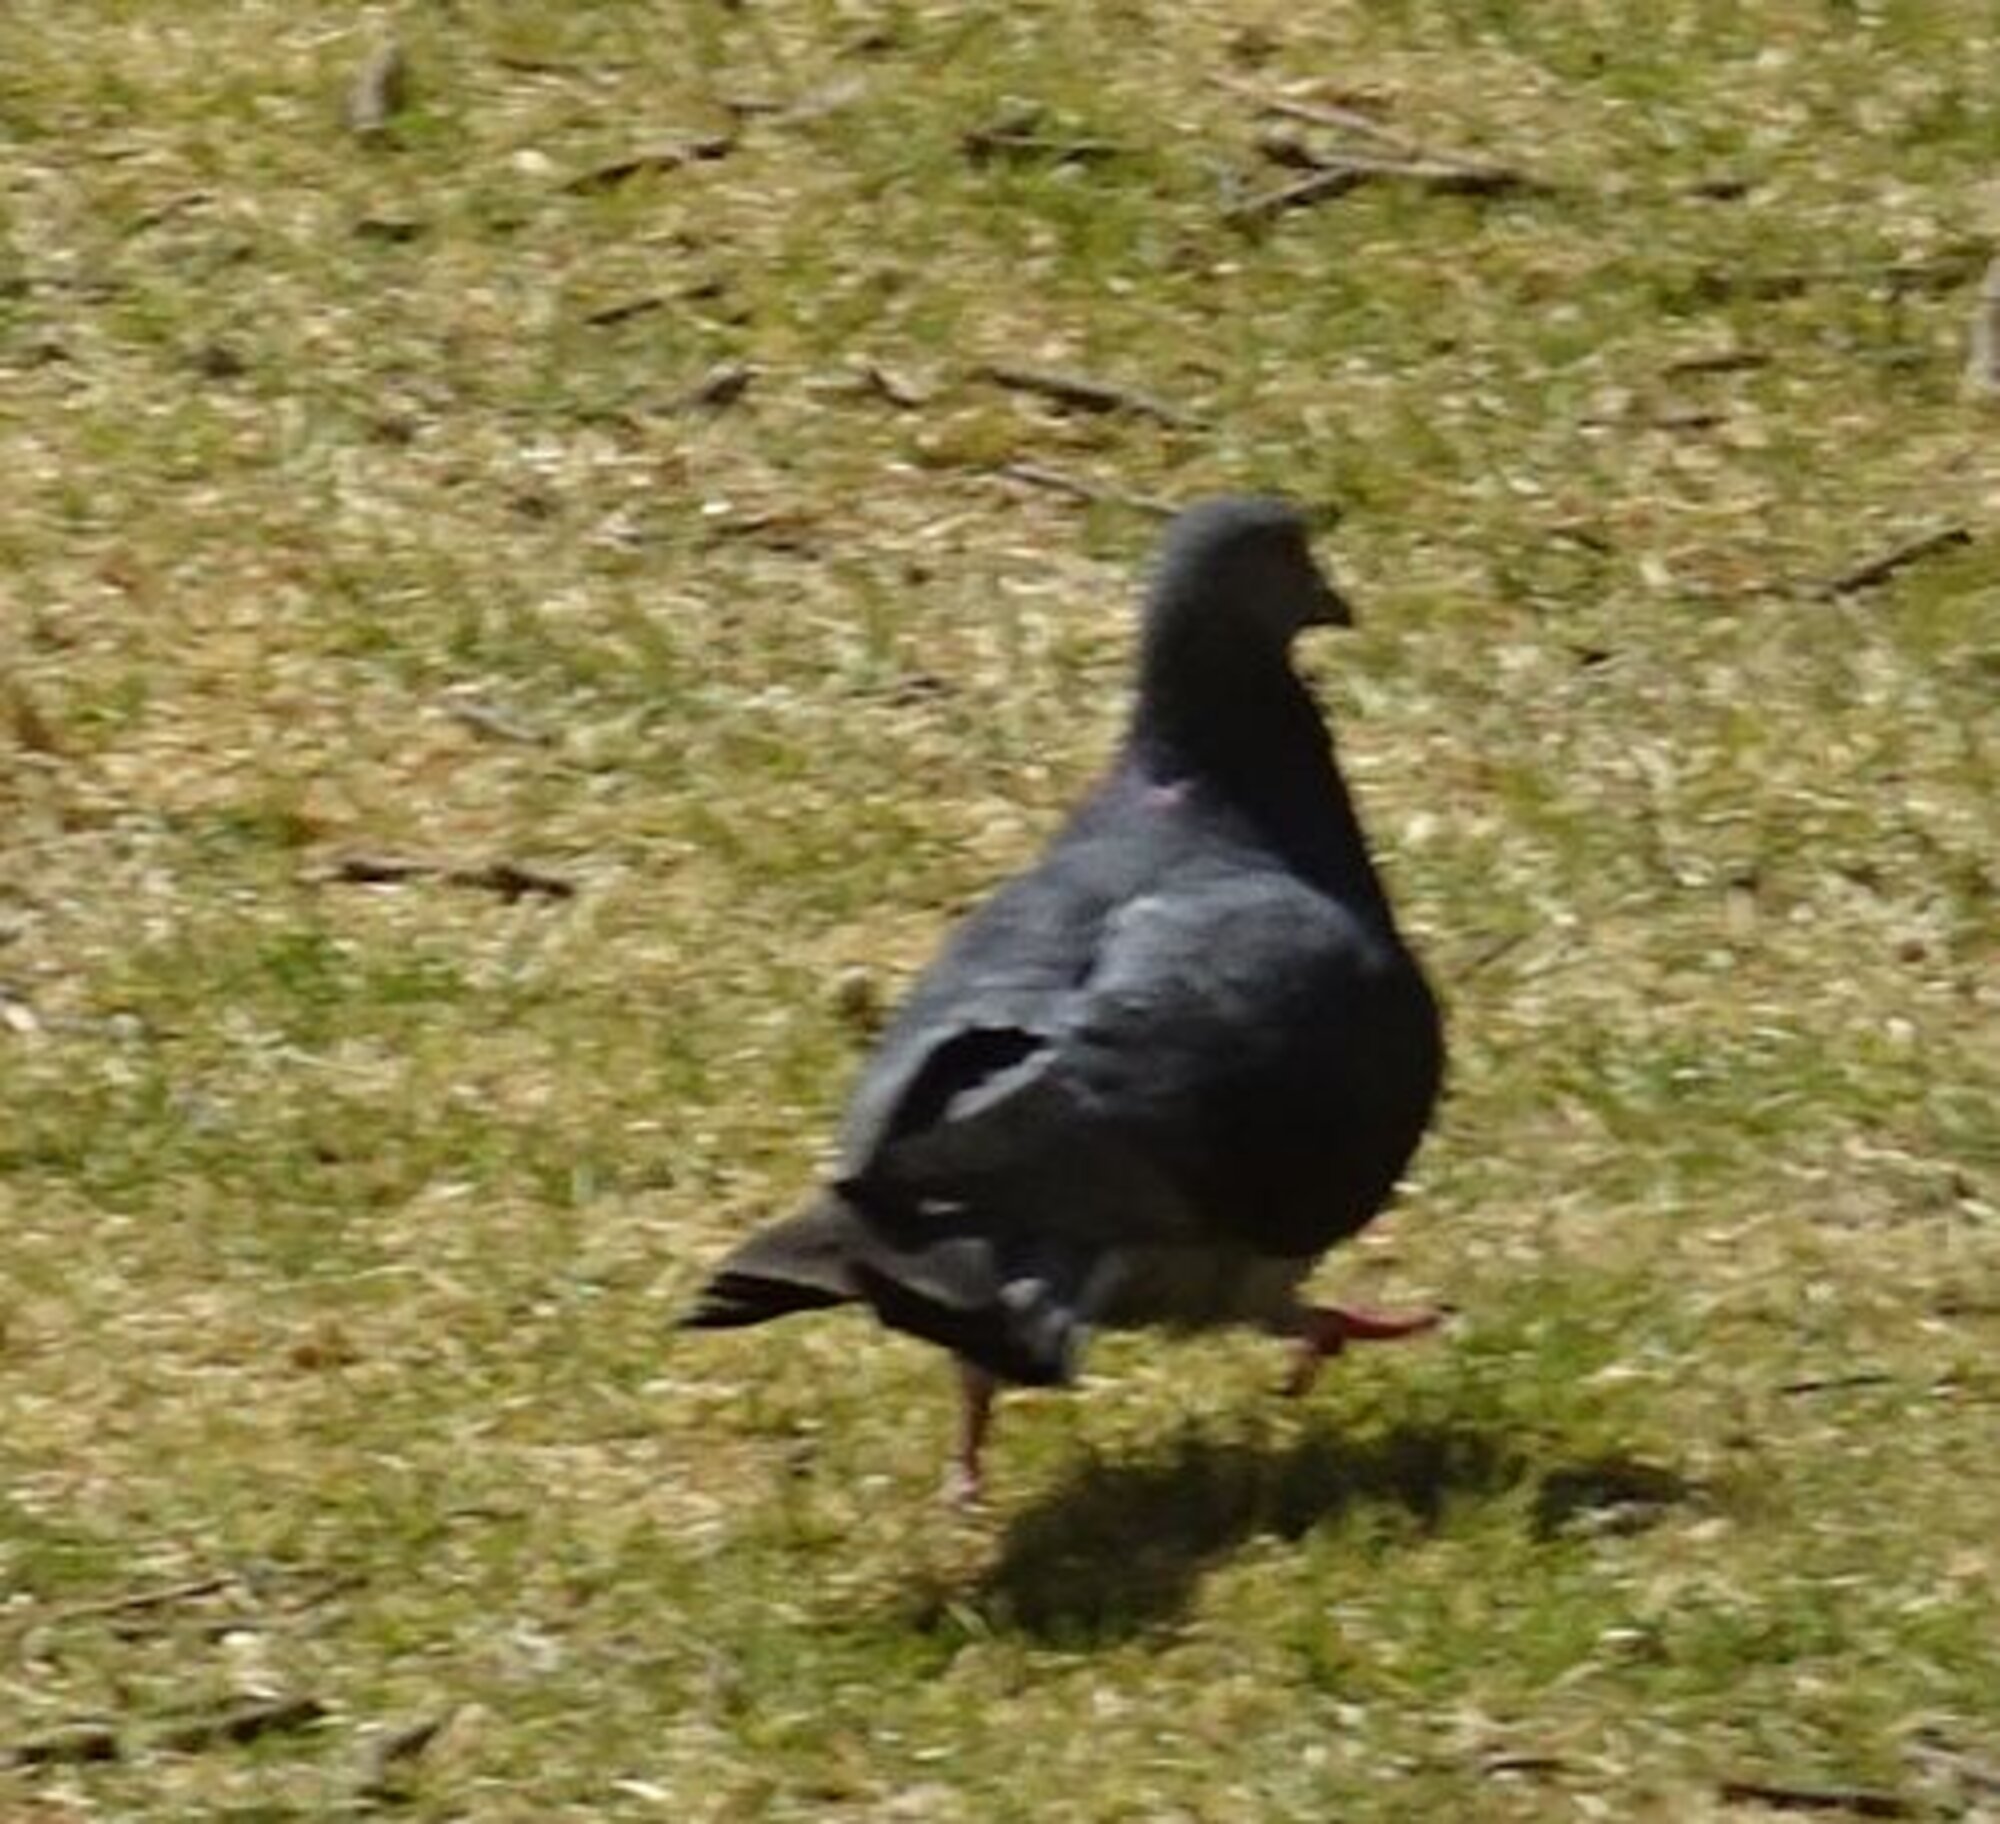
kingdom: Animalia
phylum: Chordata
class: Aves
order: Columbiformes
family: Columbidae
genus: Columba
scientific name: Columba livia
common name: Rock pigeon
